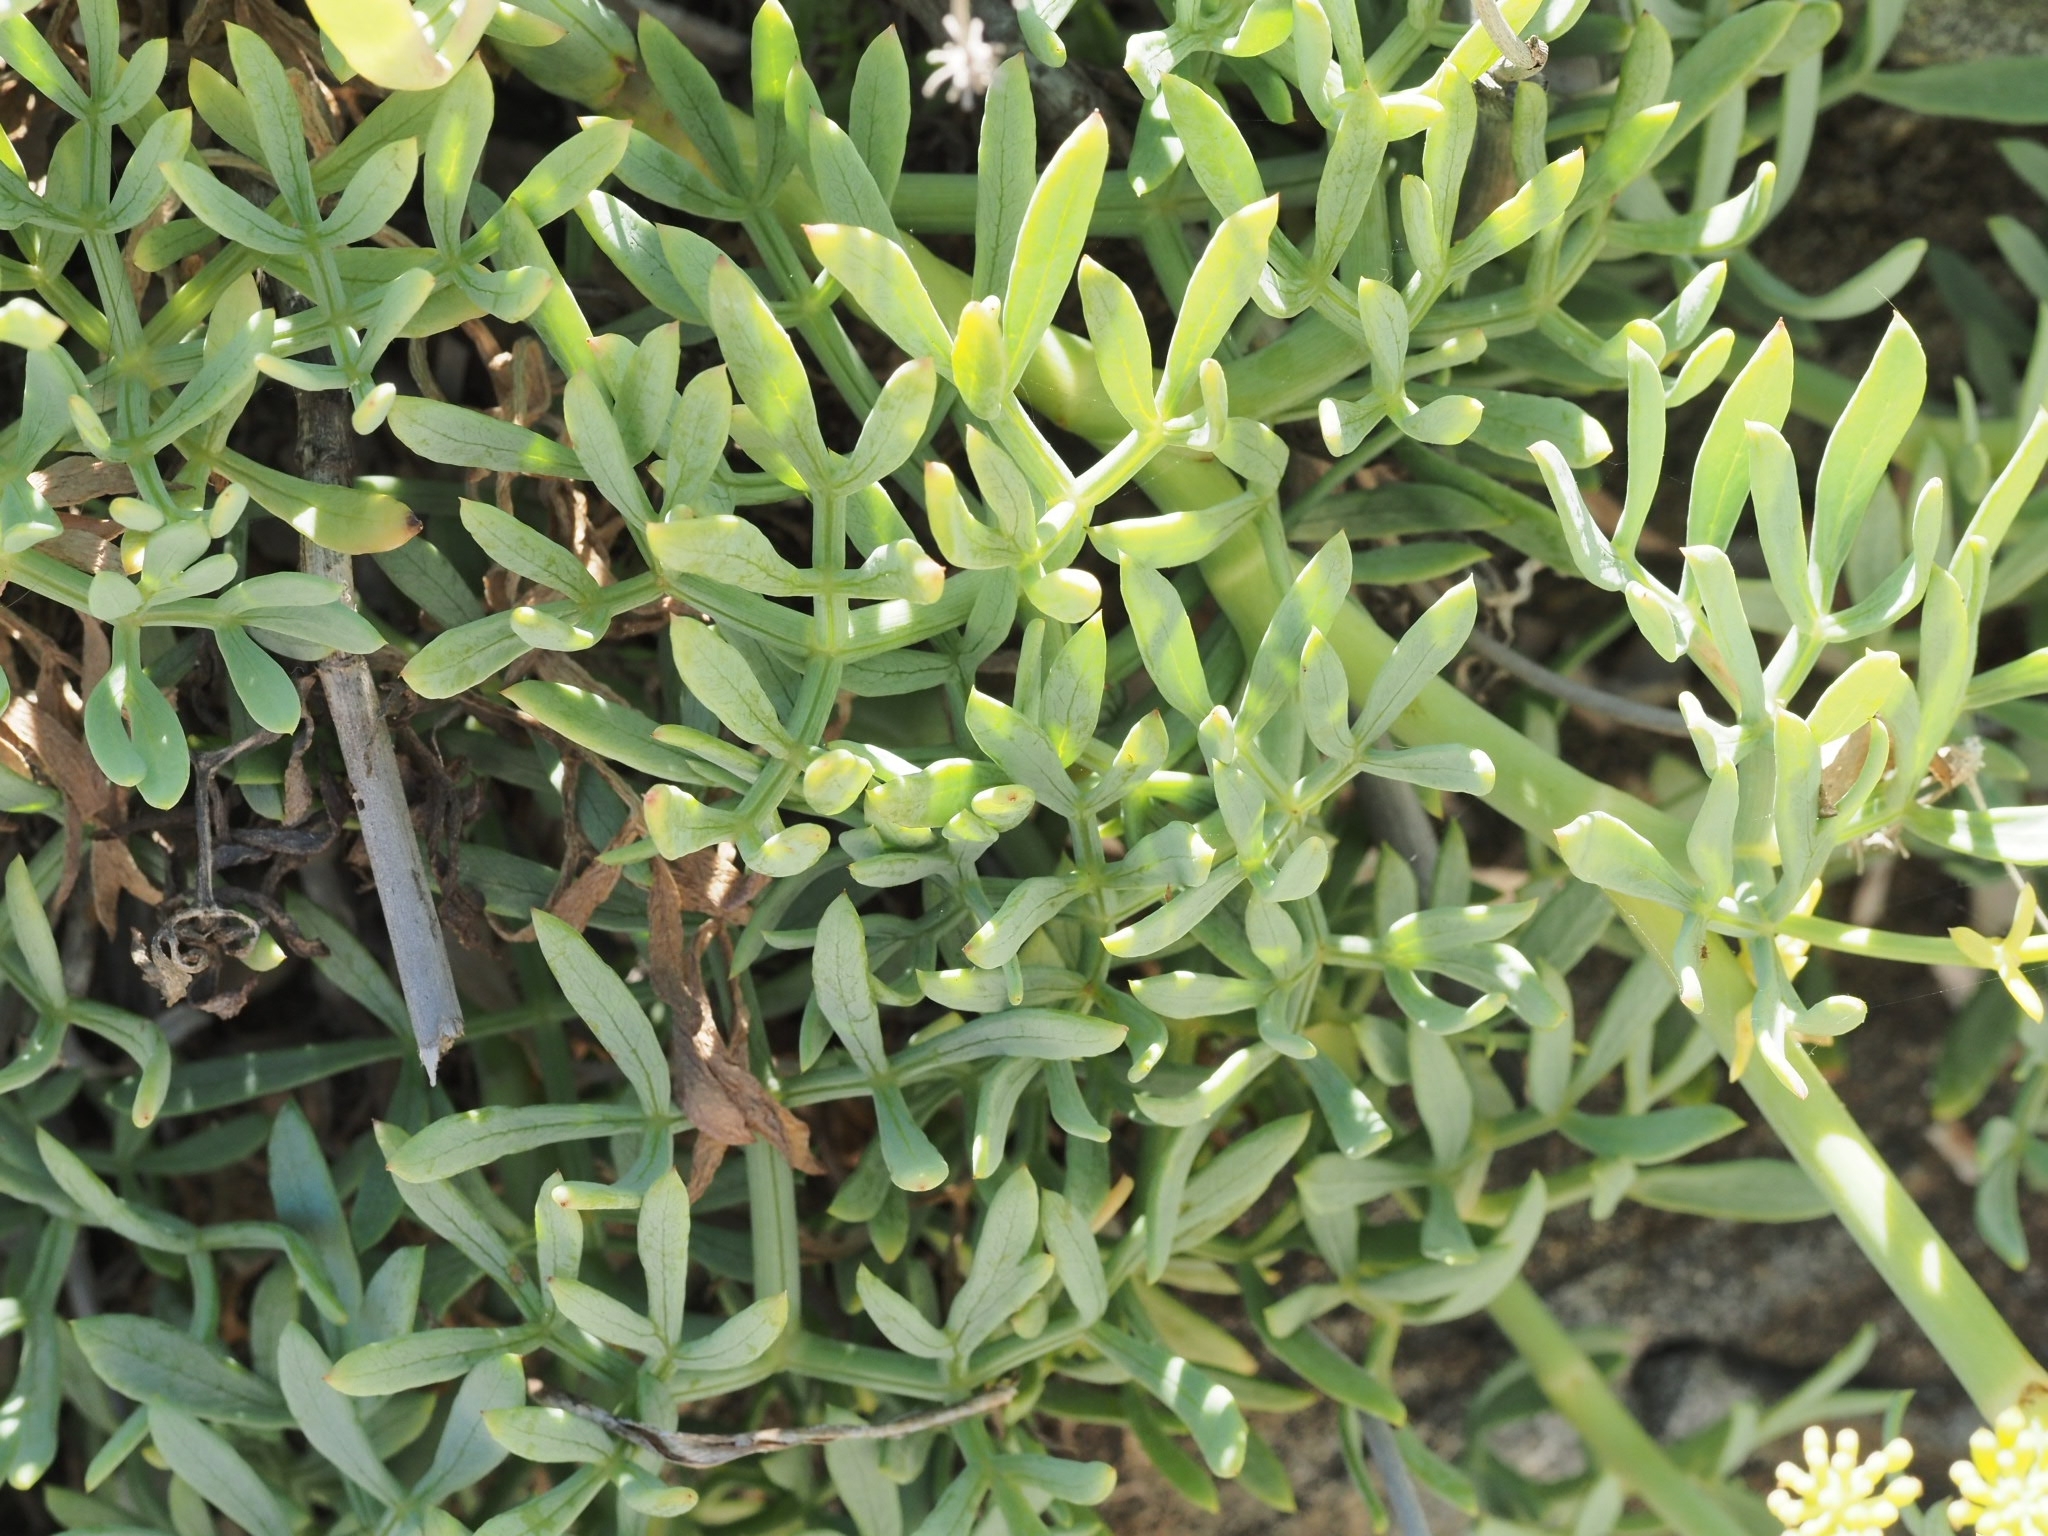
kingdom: Plantae
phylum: Tracheophyta
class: Magnoliopsida
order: Apiales
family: Apiaceae
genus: Crithmum
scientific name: Crithmum maritimum
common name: Rock samphire
